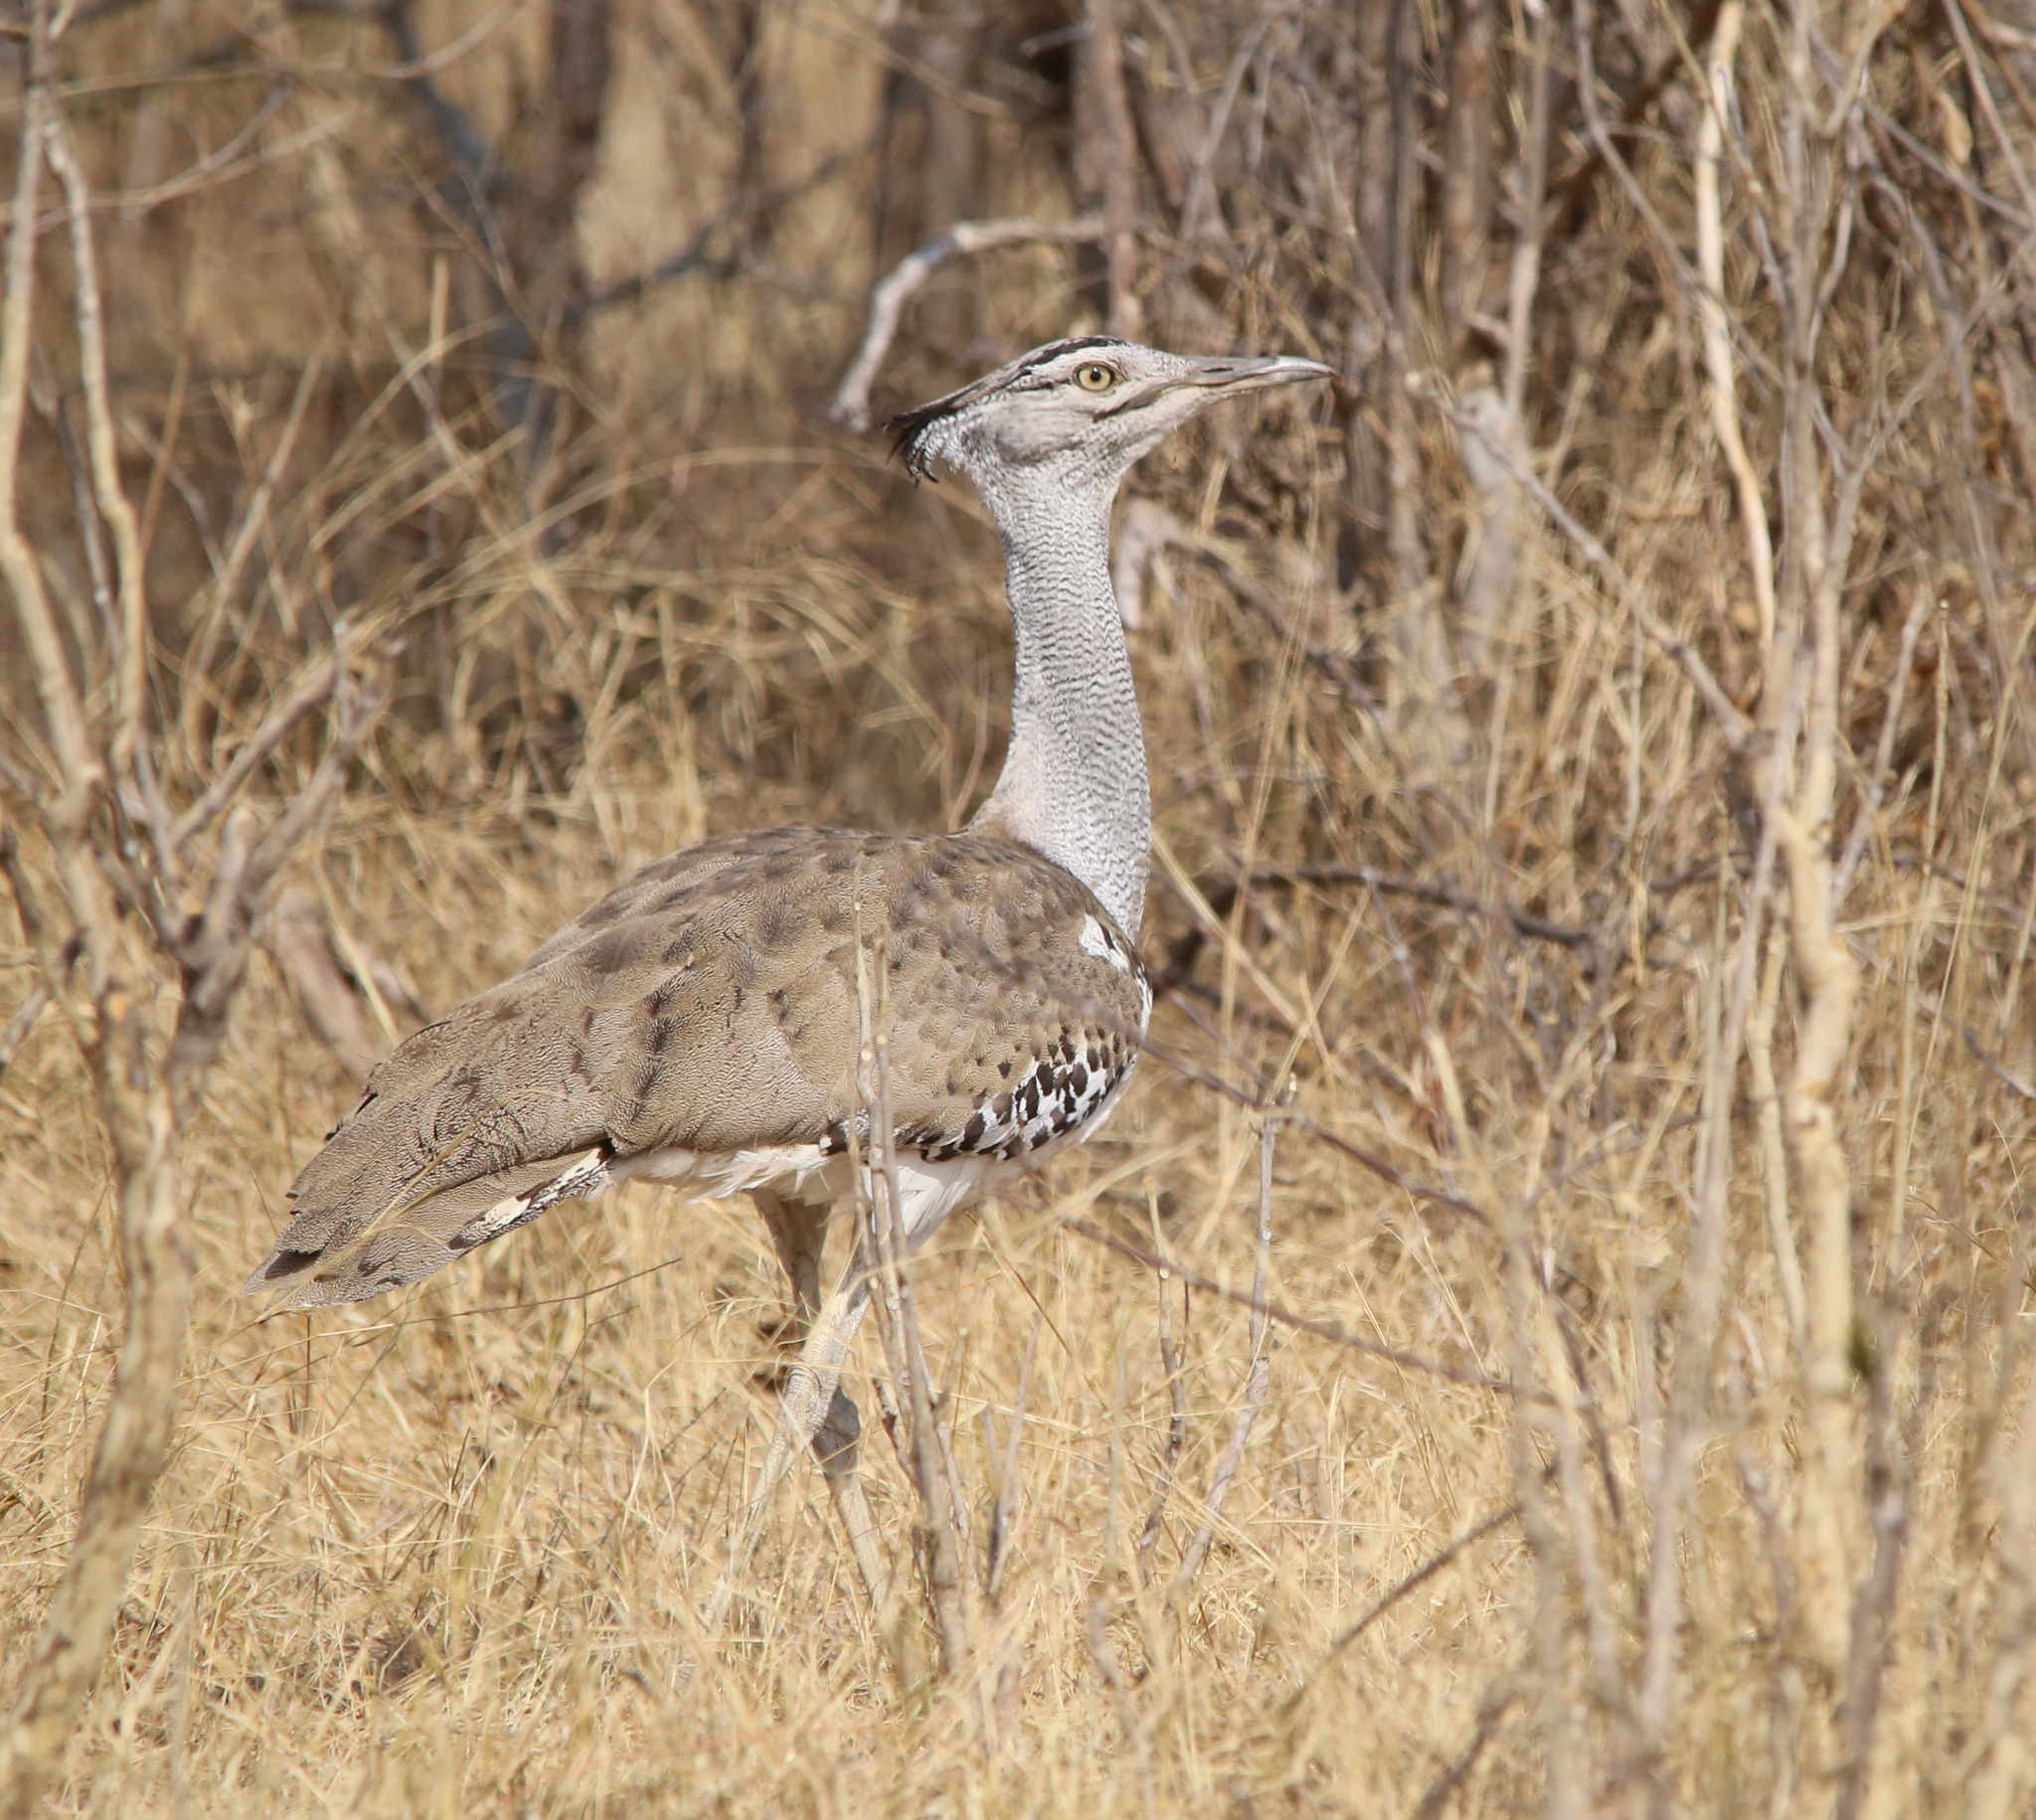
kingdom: Animalia
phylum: Chordata
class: Aves
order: Otidiformes
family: Otididae
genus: Ardeotis
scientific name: Ardeotis kori
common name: Kori bustard
